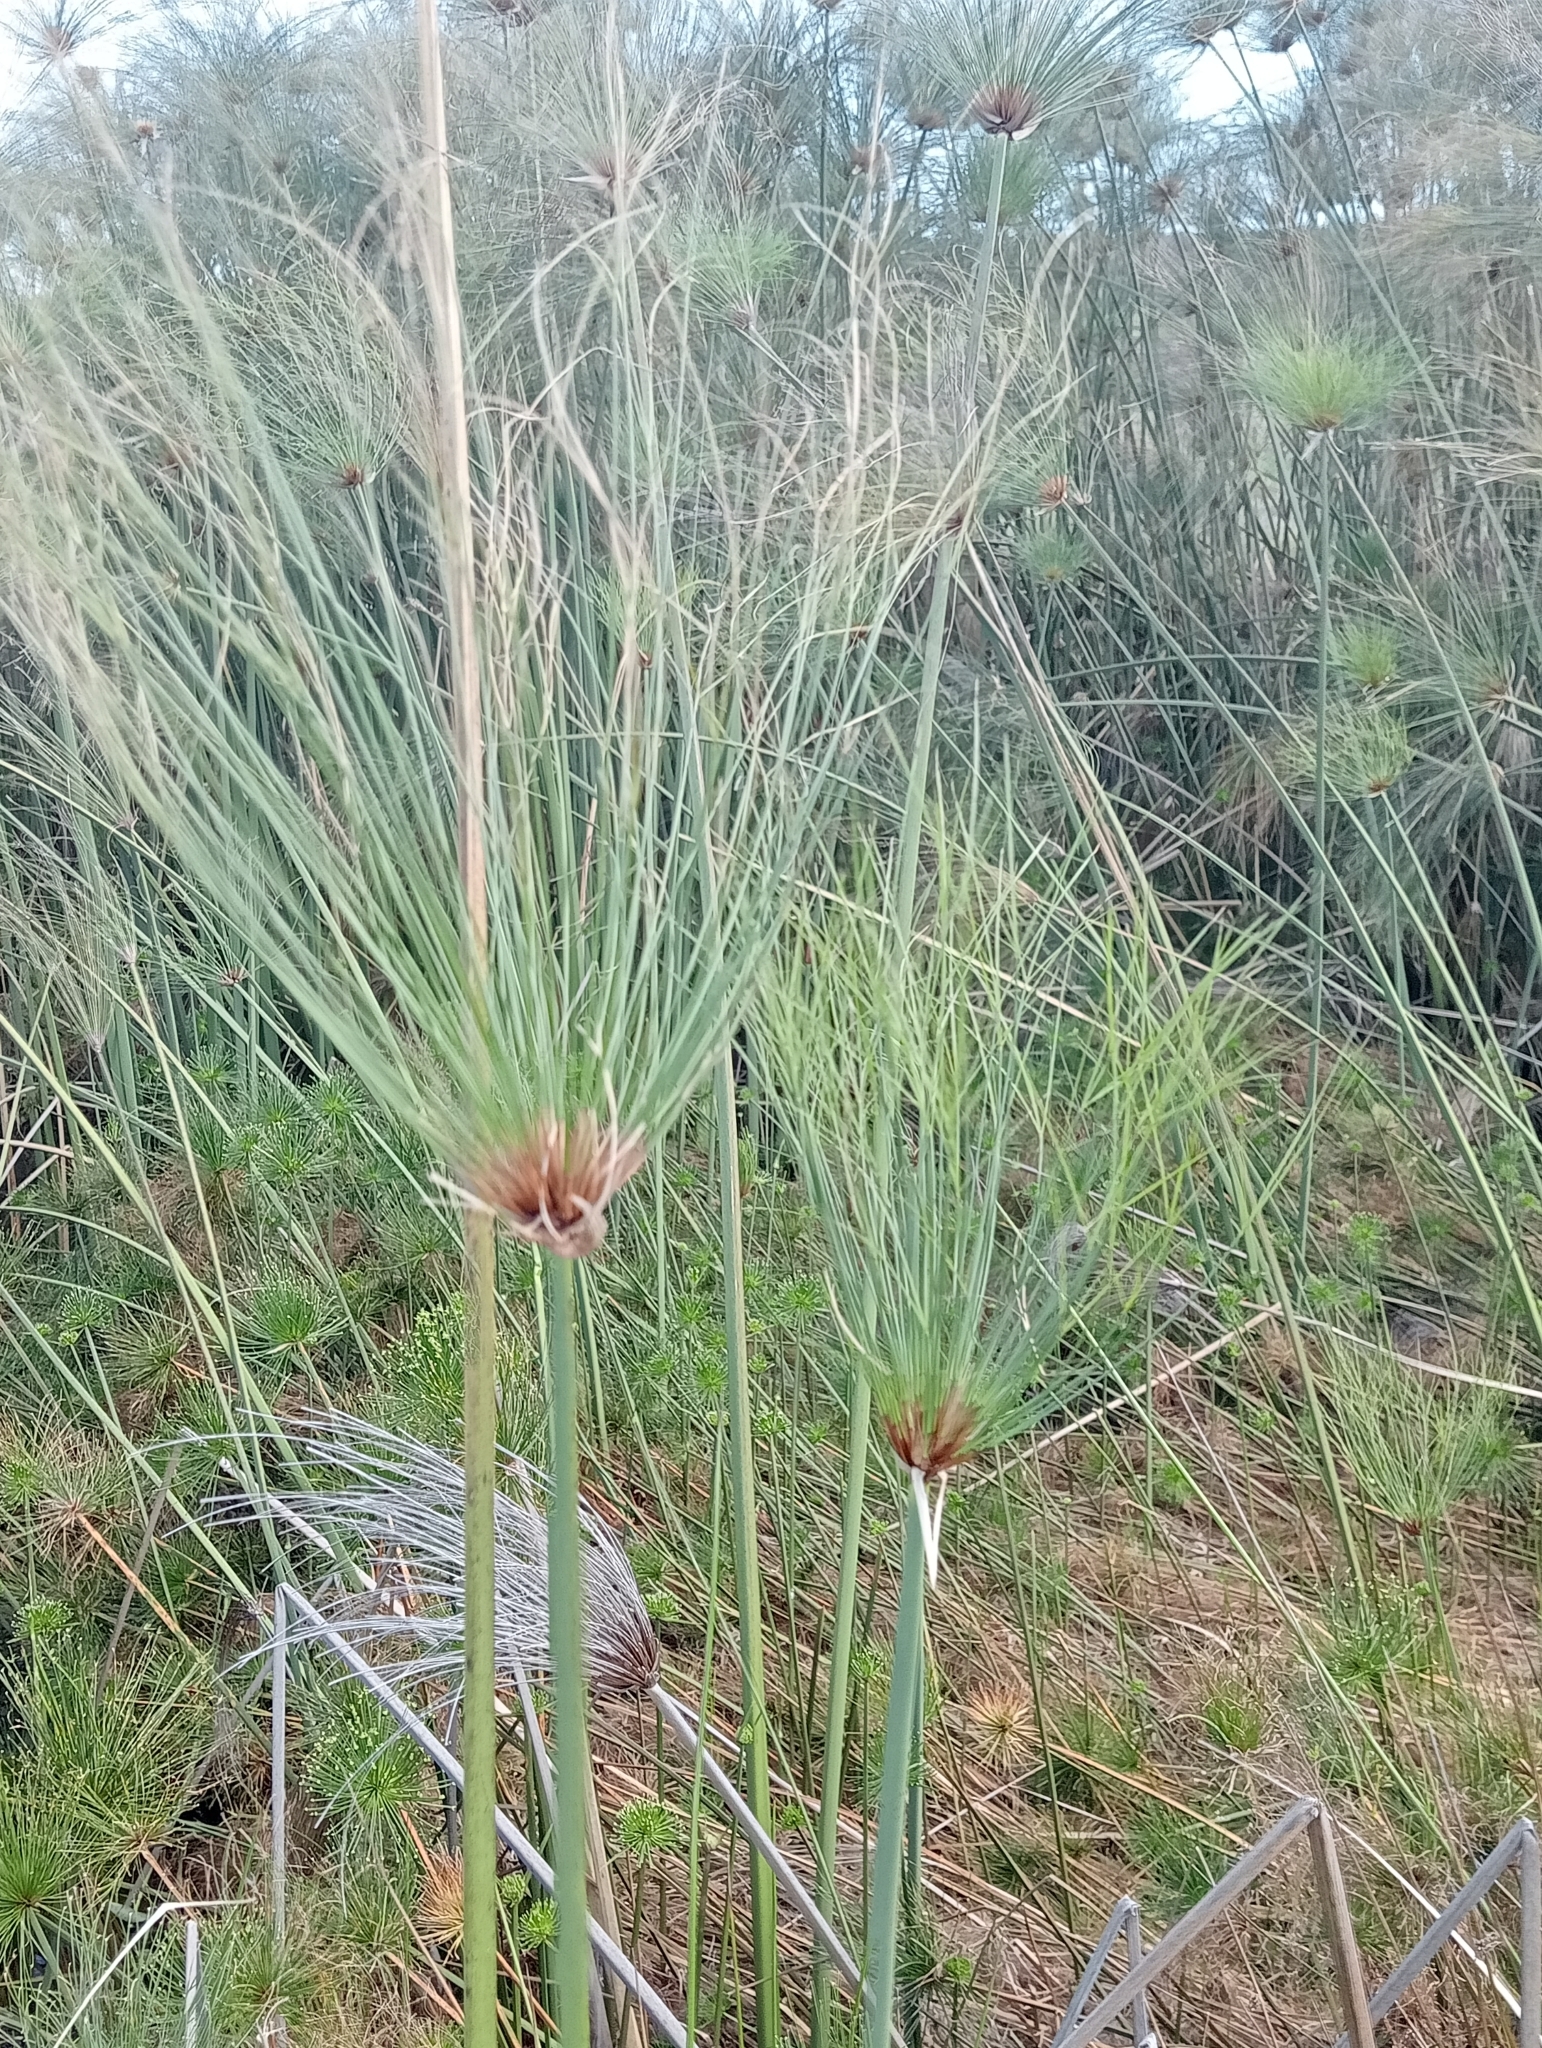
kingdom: Plantae
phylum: Tracheophyta
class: Liliopsida
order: Poales
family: Cyperaceae
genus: Cyperus
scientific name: Cyperus papyrus
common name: Papyrus
